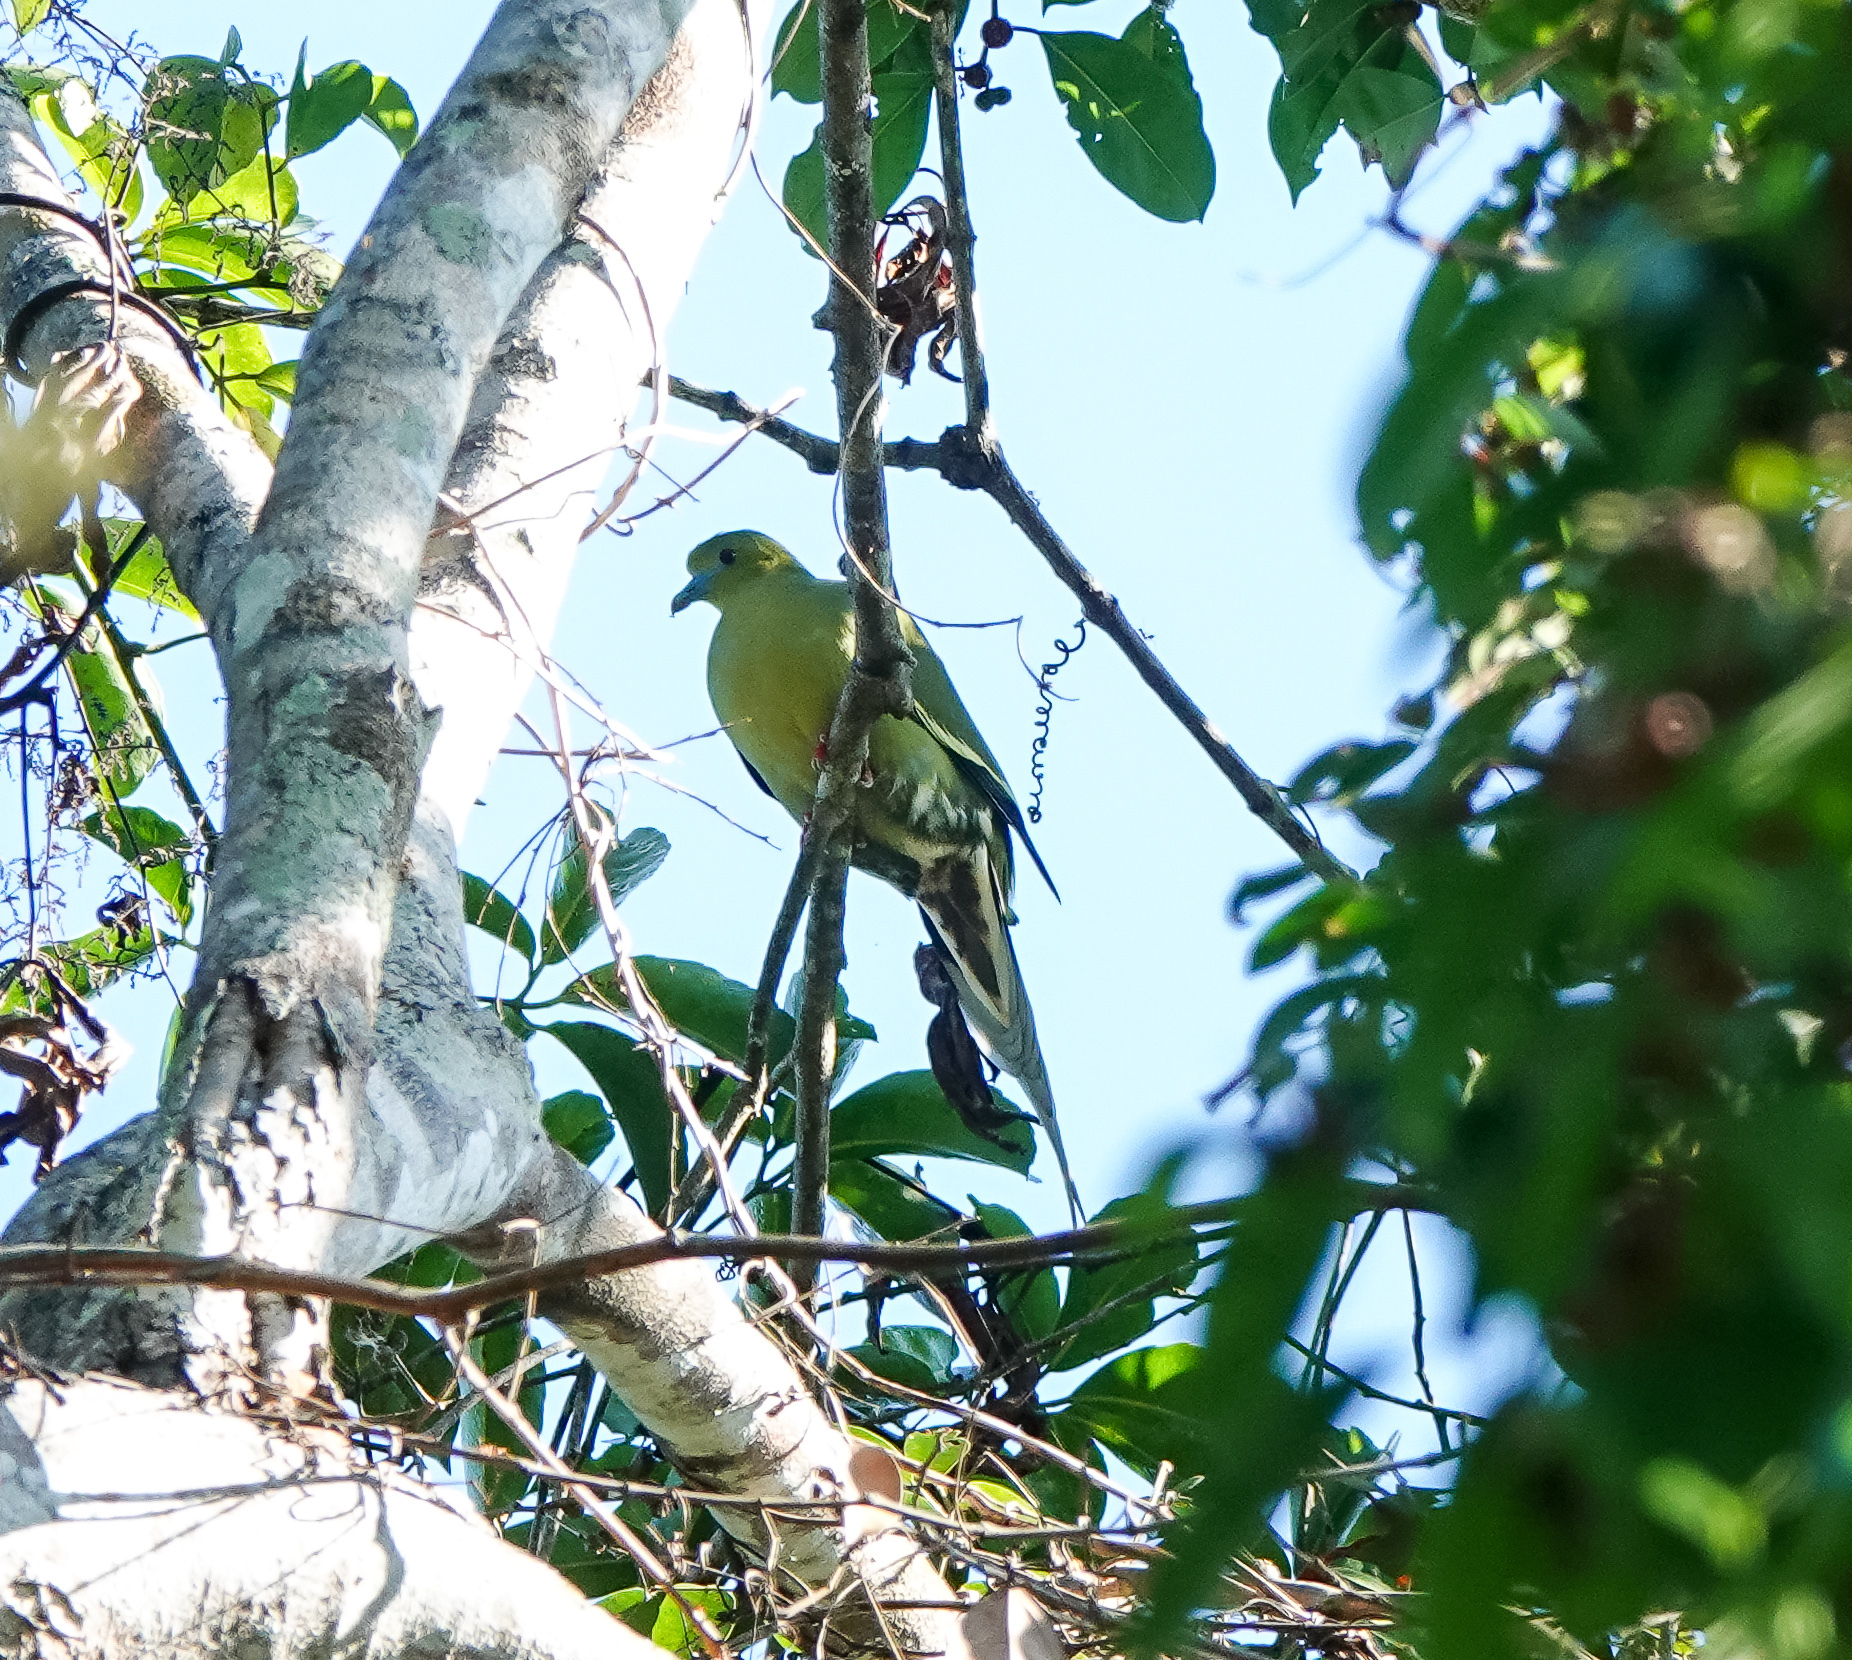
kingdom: Animalia
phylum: Chordata
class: Aves
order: Columbiformes
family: Columbidae
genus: Treron
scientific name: Treron apicauda
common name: Pin-tailed green pigeon
